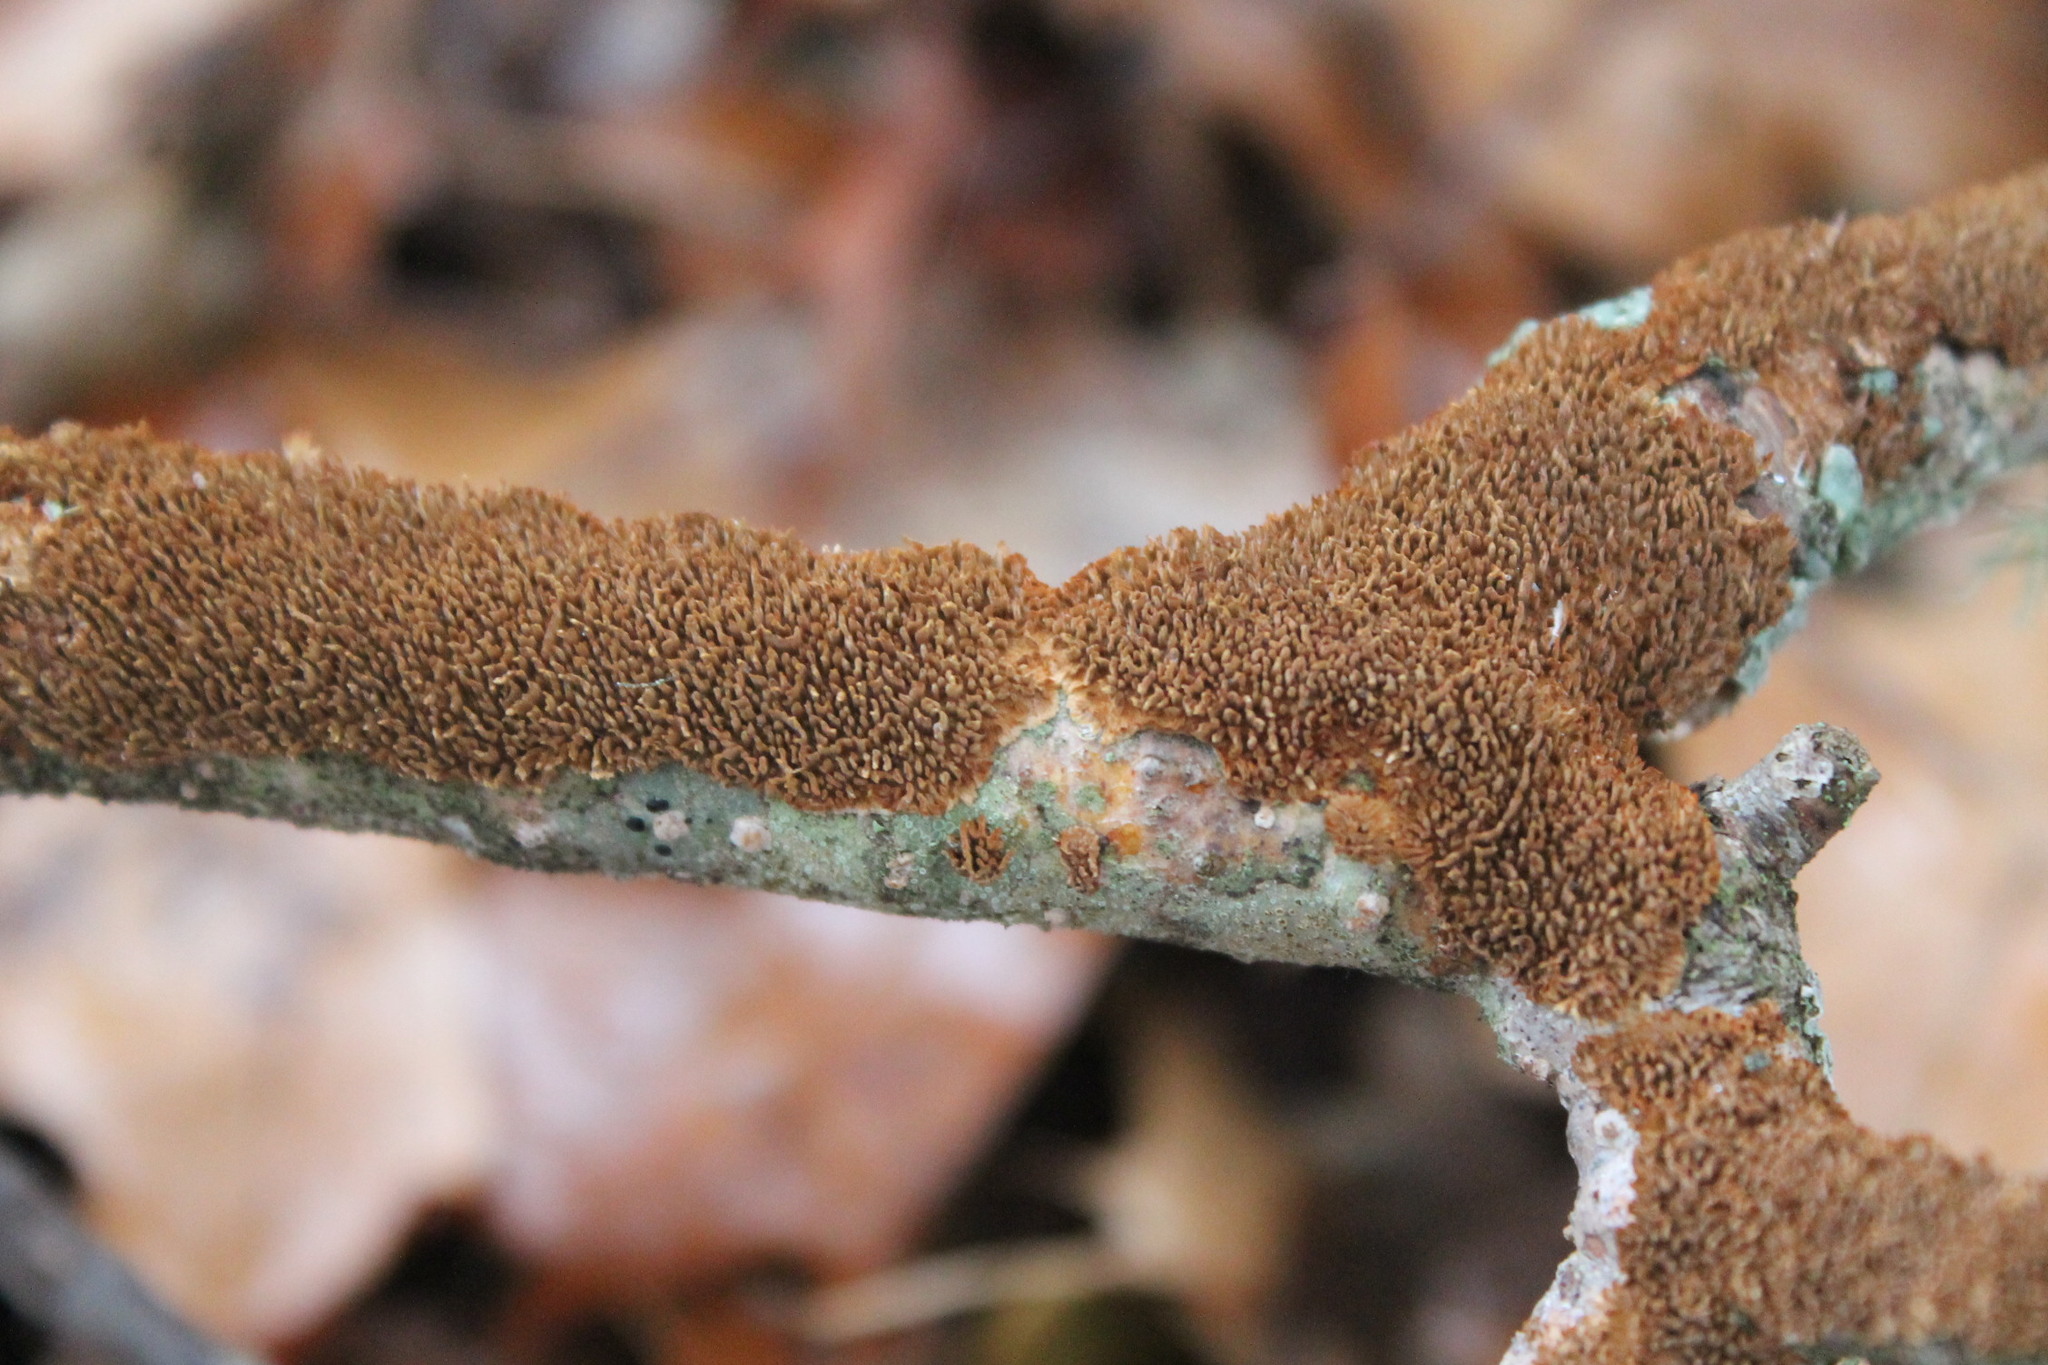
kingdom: Fungi
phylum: Basidiomycota
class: Agaricomycetes
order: Hymenochaetales
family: Hymenochaetaceae
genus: Hydnoporia
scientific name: Hydnoporia olivacea
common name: Brown-toothed crust fungus
